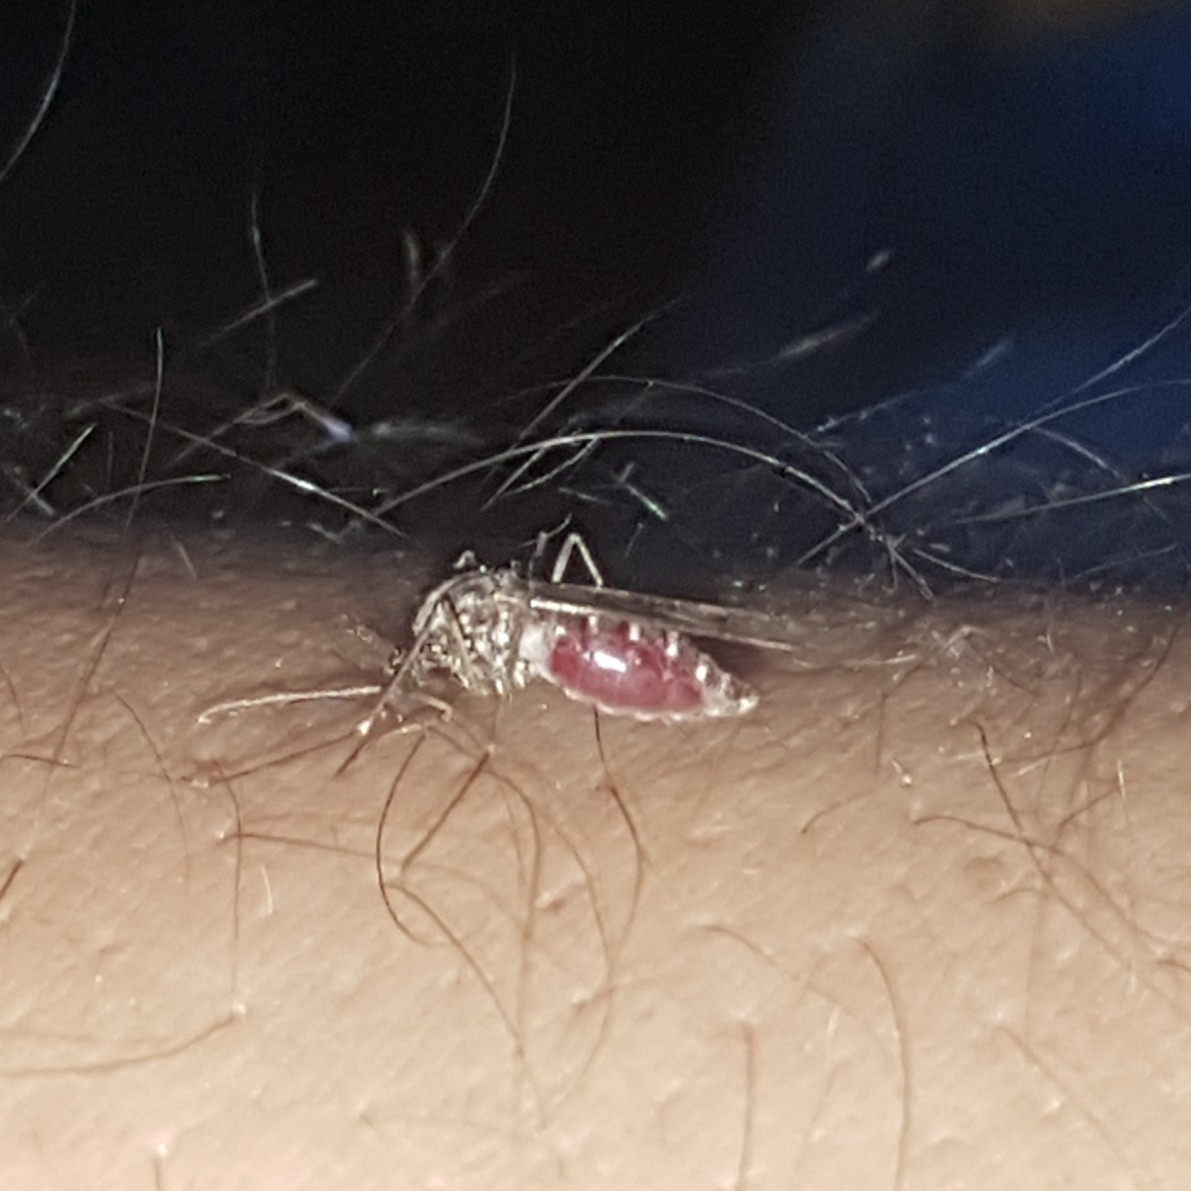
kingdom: Animalia
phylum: Arthropoda
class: Insecta
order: Diptera
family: Culicidae
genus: Culiseta
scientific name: Culiseta incidens
